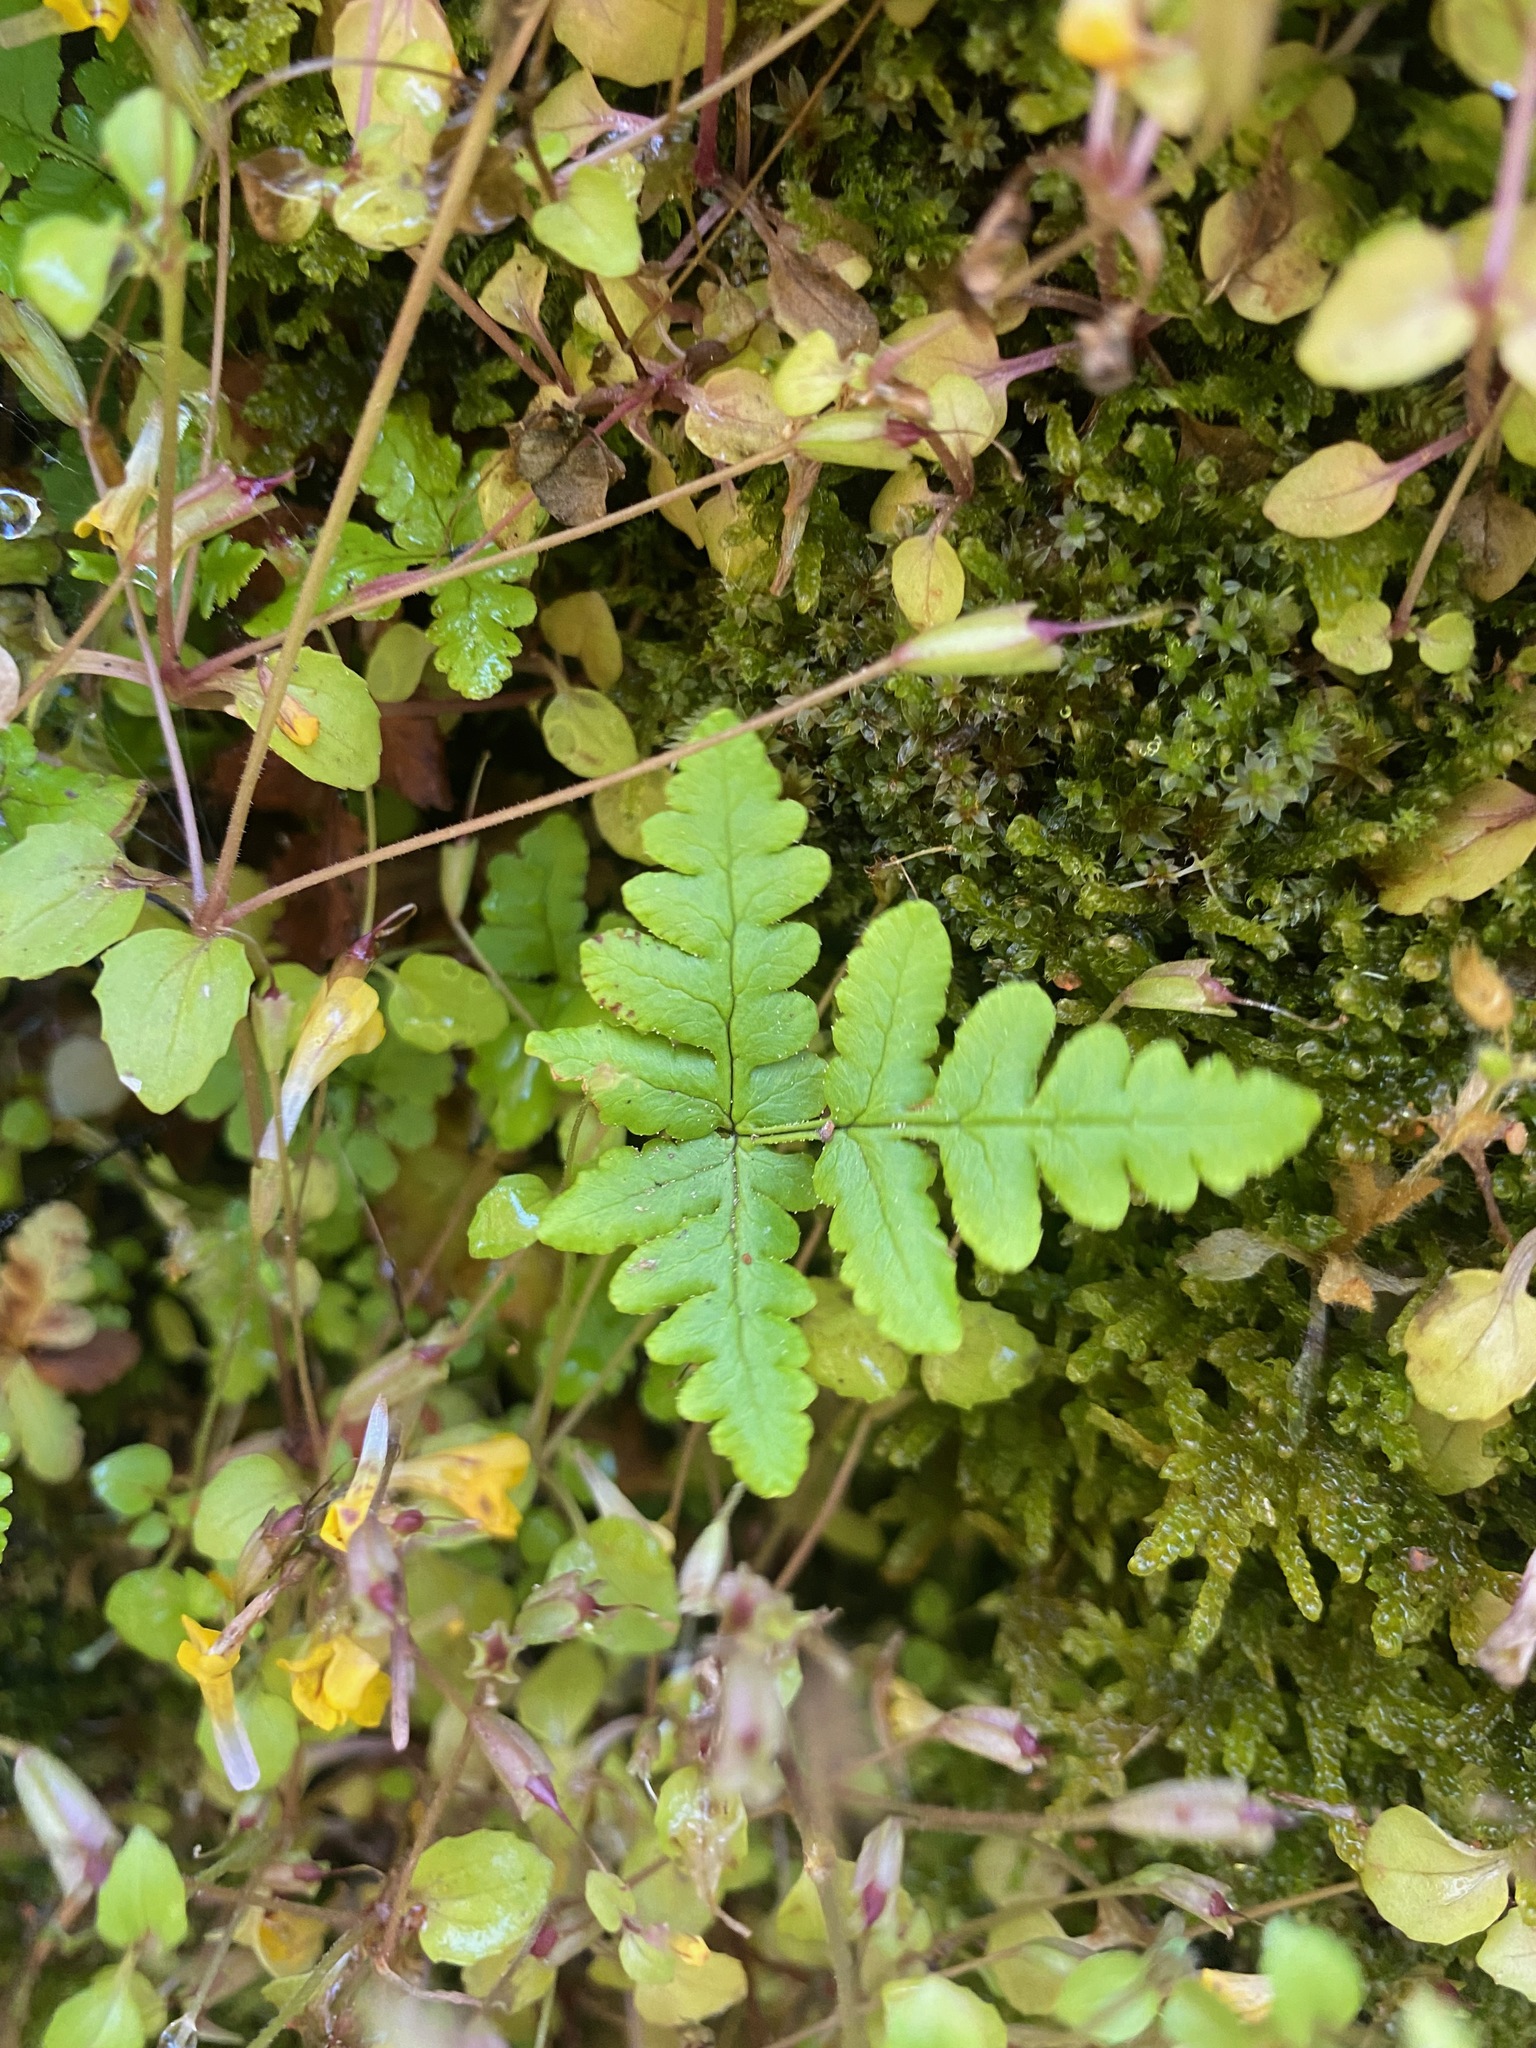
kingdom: Plantae
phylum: Tracheophyta
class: Polypodiopsida
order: Polypodiales
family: Pteridaceae
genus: Pentagramma
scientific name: Pentagramma triangularis
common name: Gold fern
